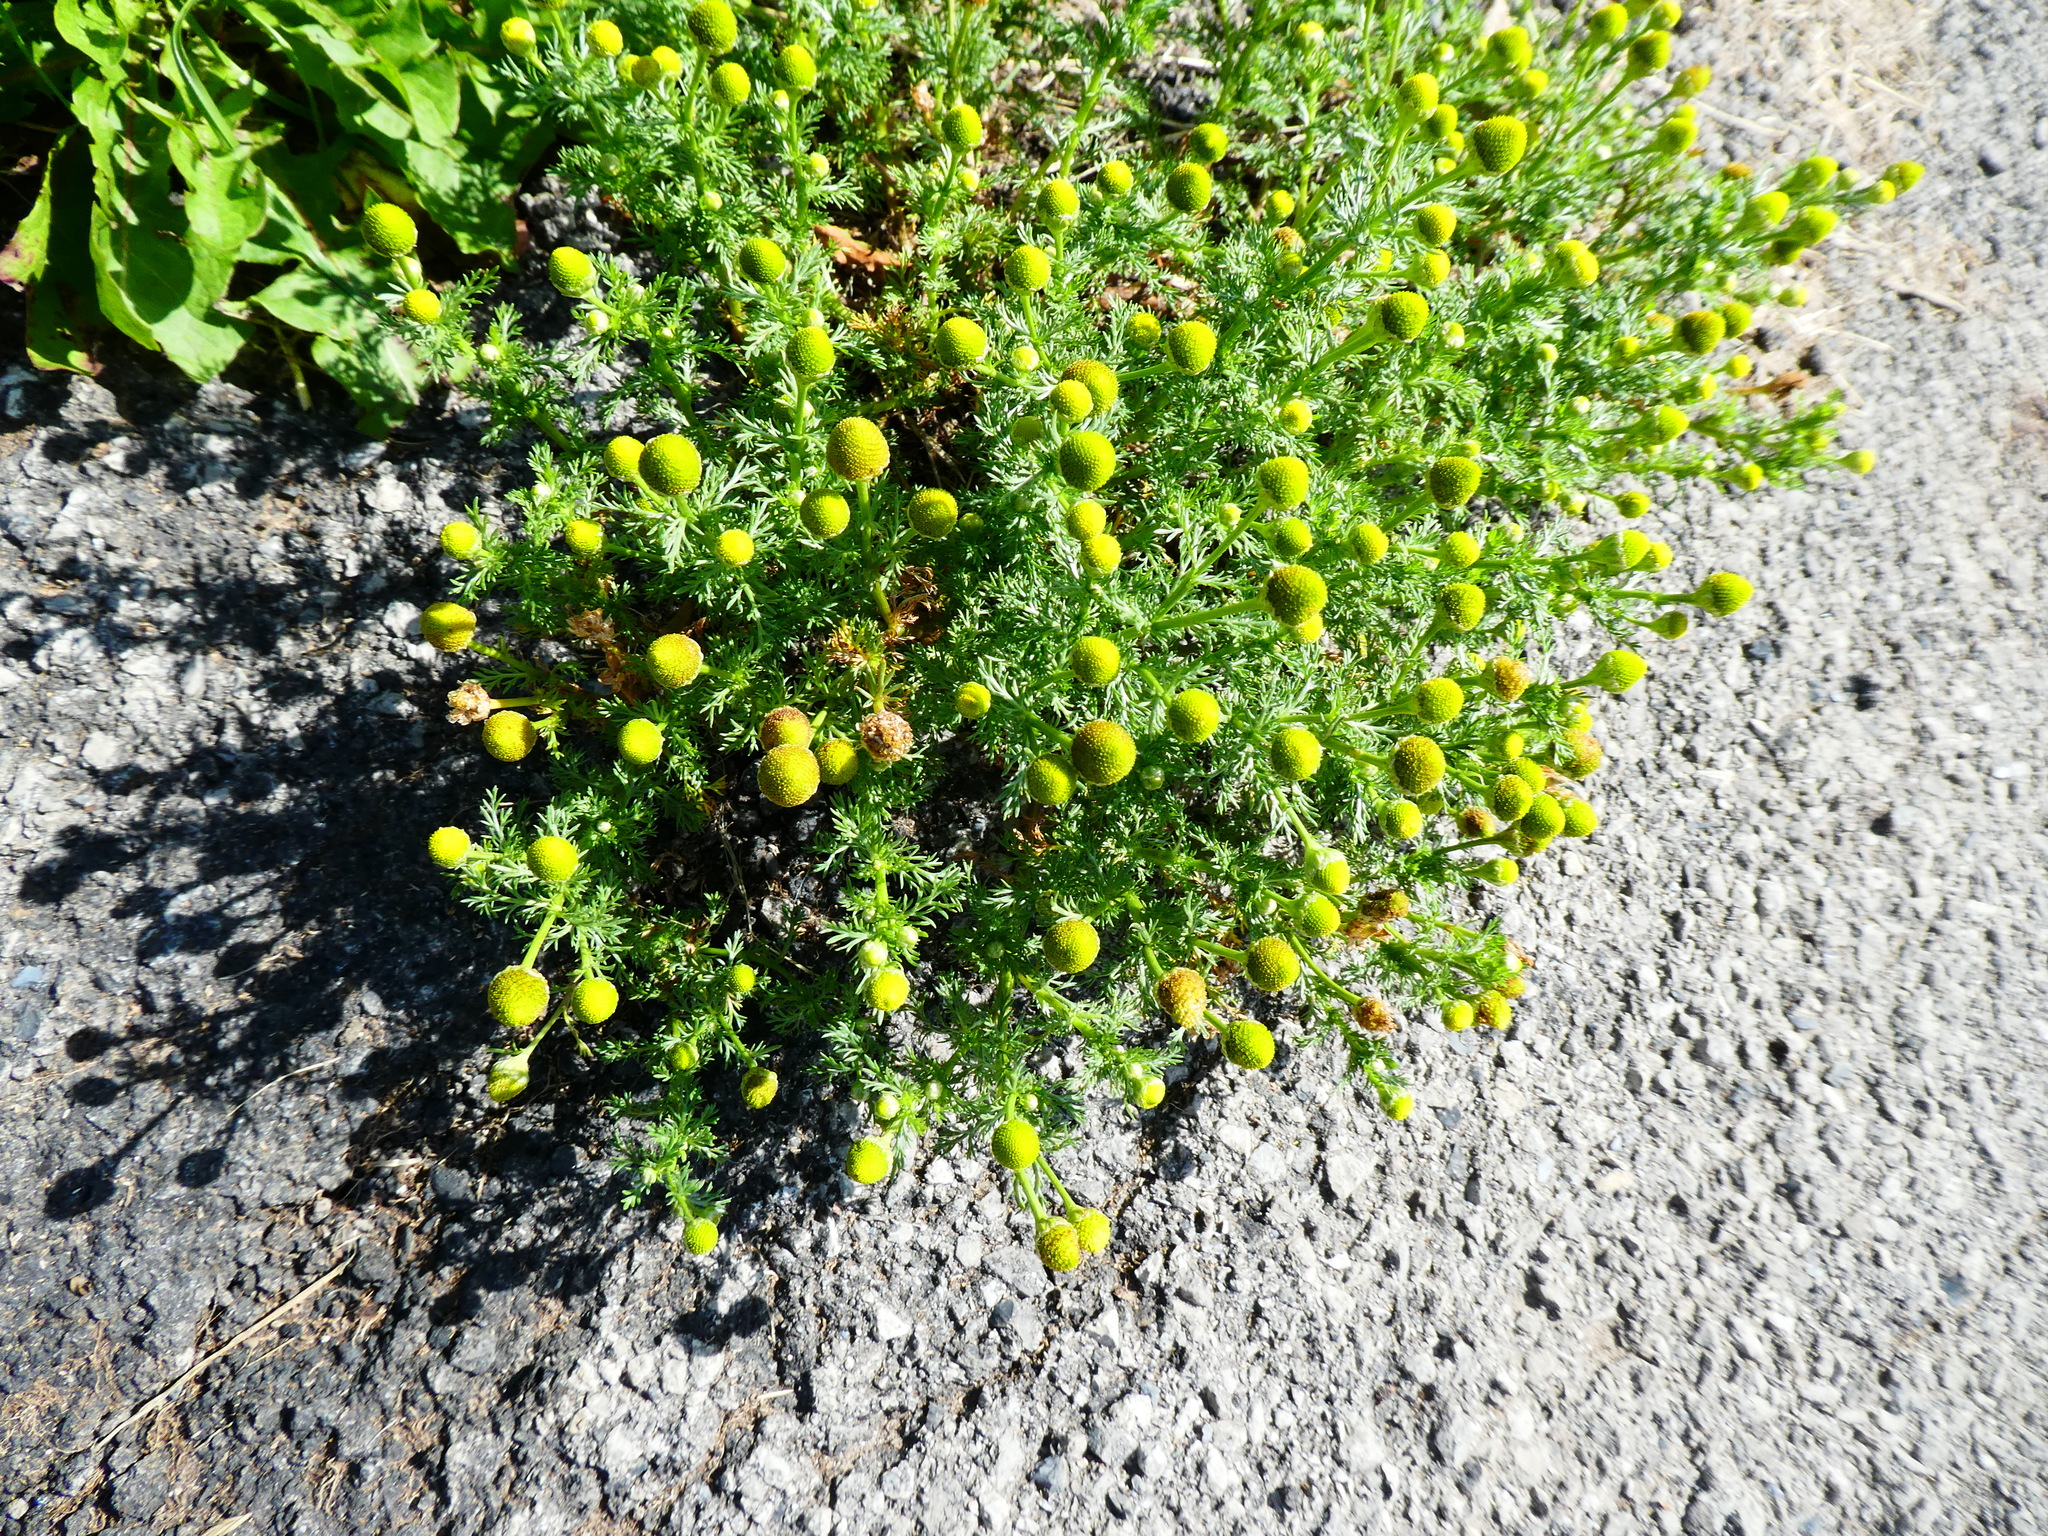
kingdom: Plantae
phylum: Tracheophyta
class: Magnoliopsida
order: Asterales
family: Asteraceae
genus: Matricaria
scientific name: Matricaria discoidea
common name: Disc mayweed
